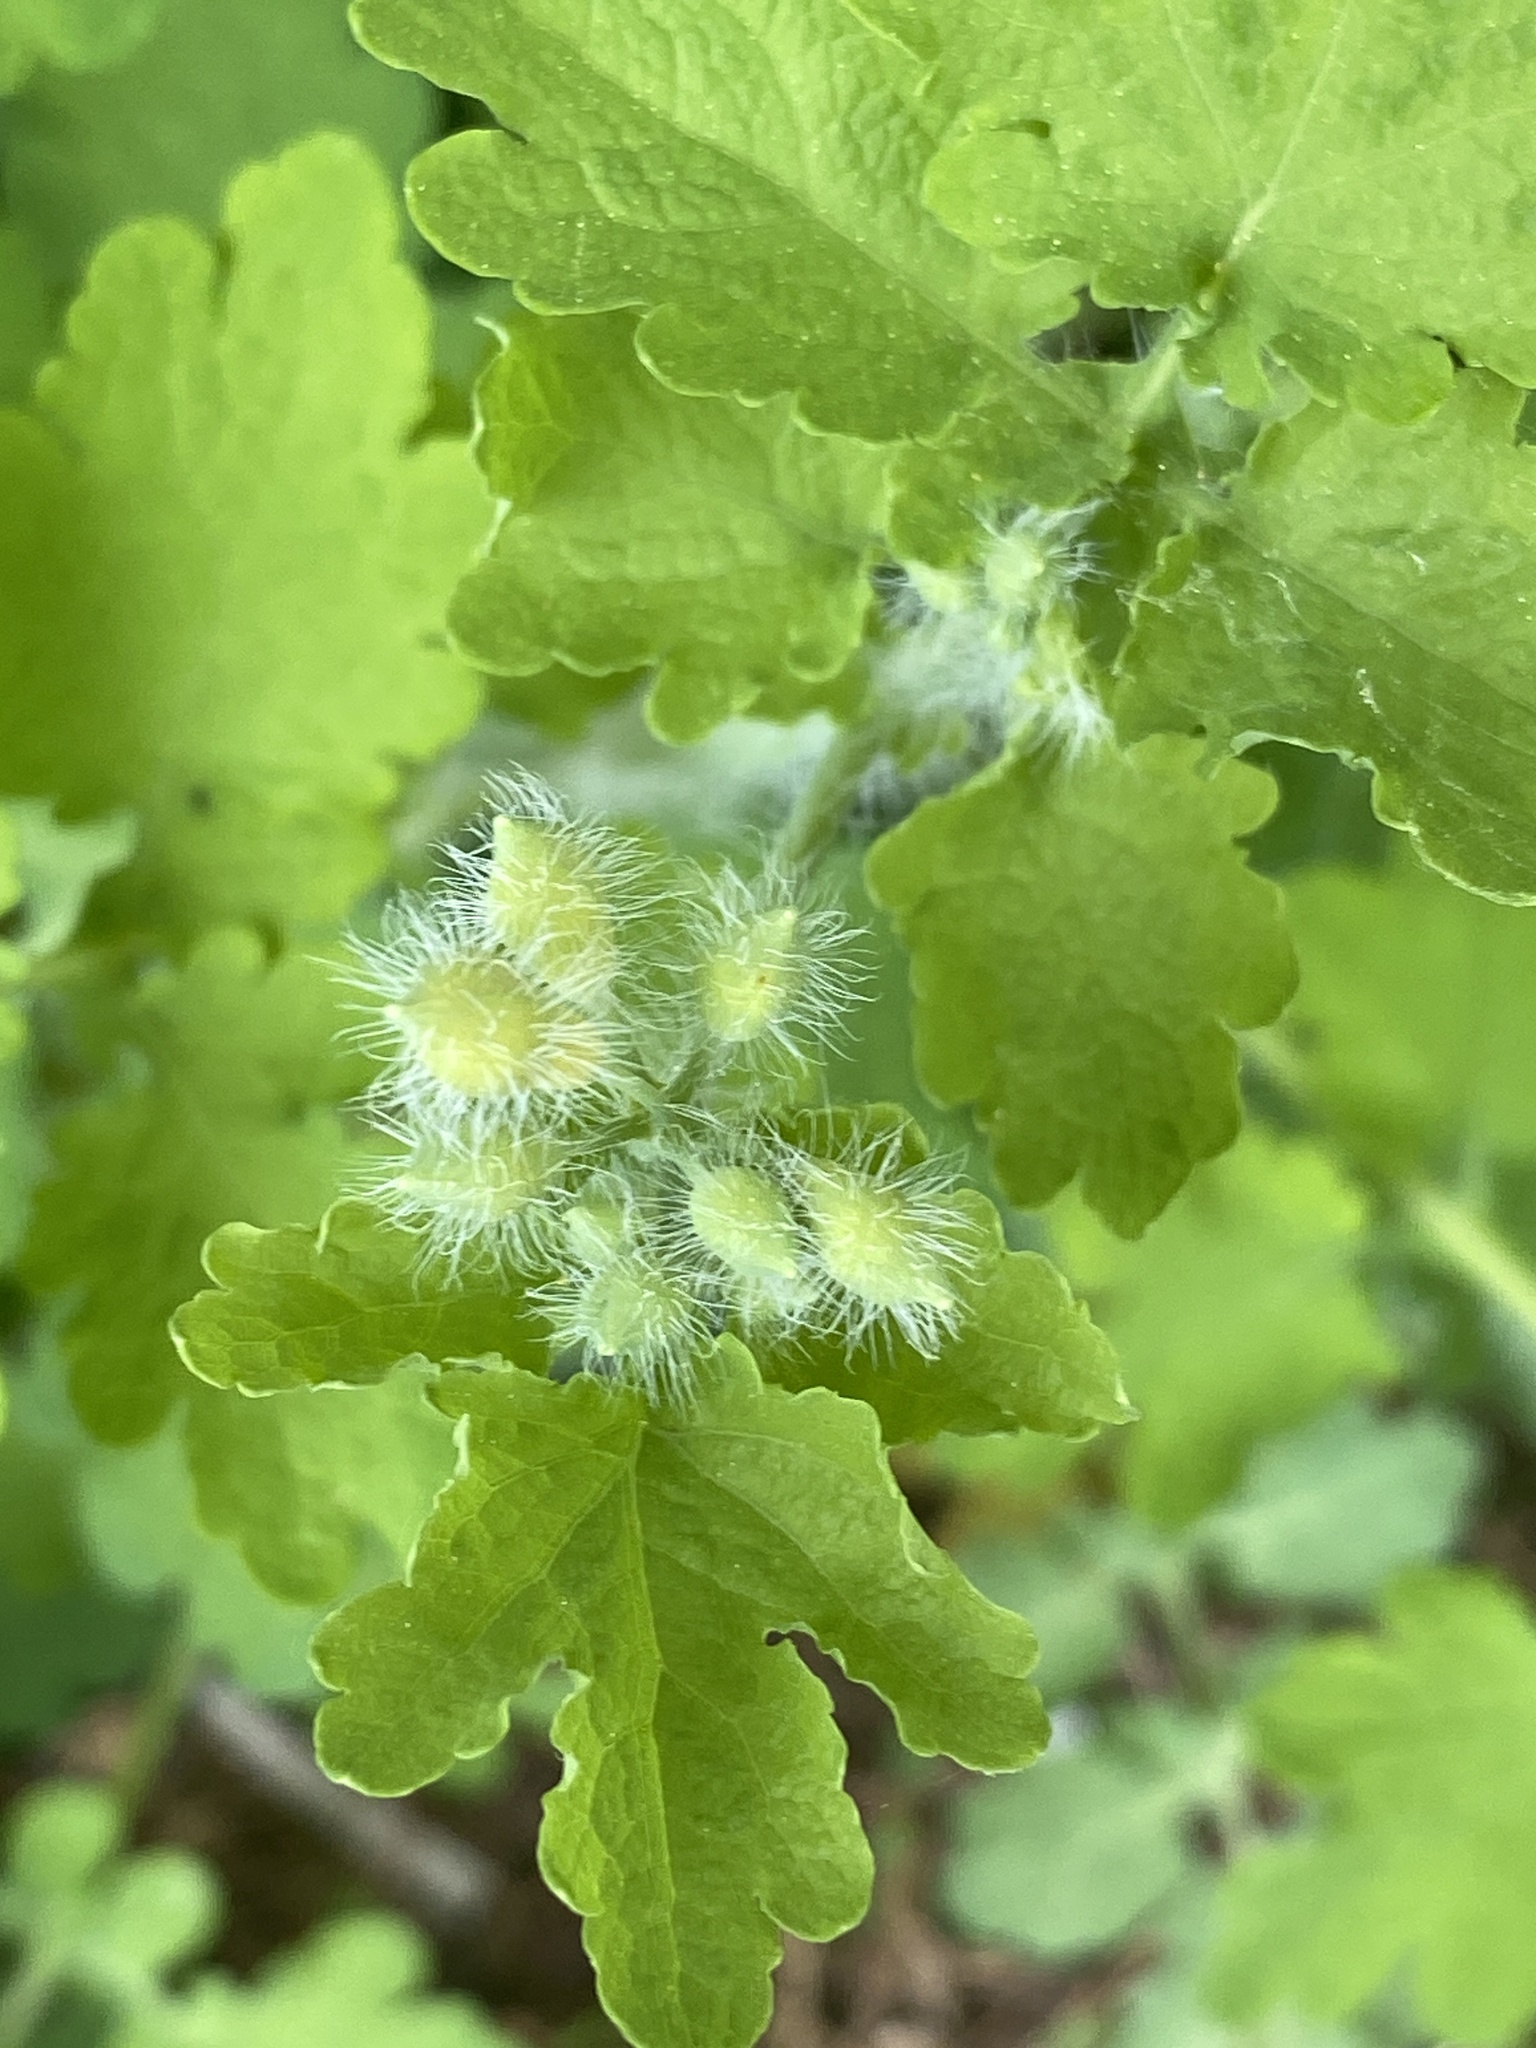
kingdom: Plantae
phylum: Tracheophyta
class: Magnoliopsida
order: Ranunculales
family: Papaveraceae
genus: Chelidonium
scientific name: Chelidonium majus
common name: Greater celandine
